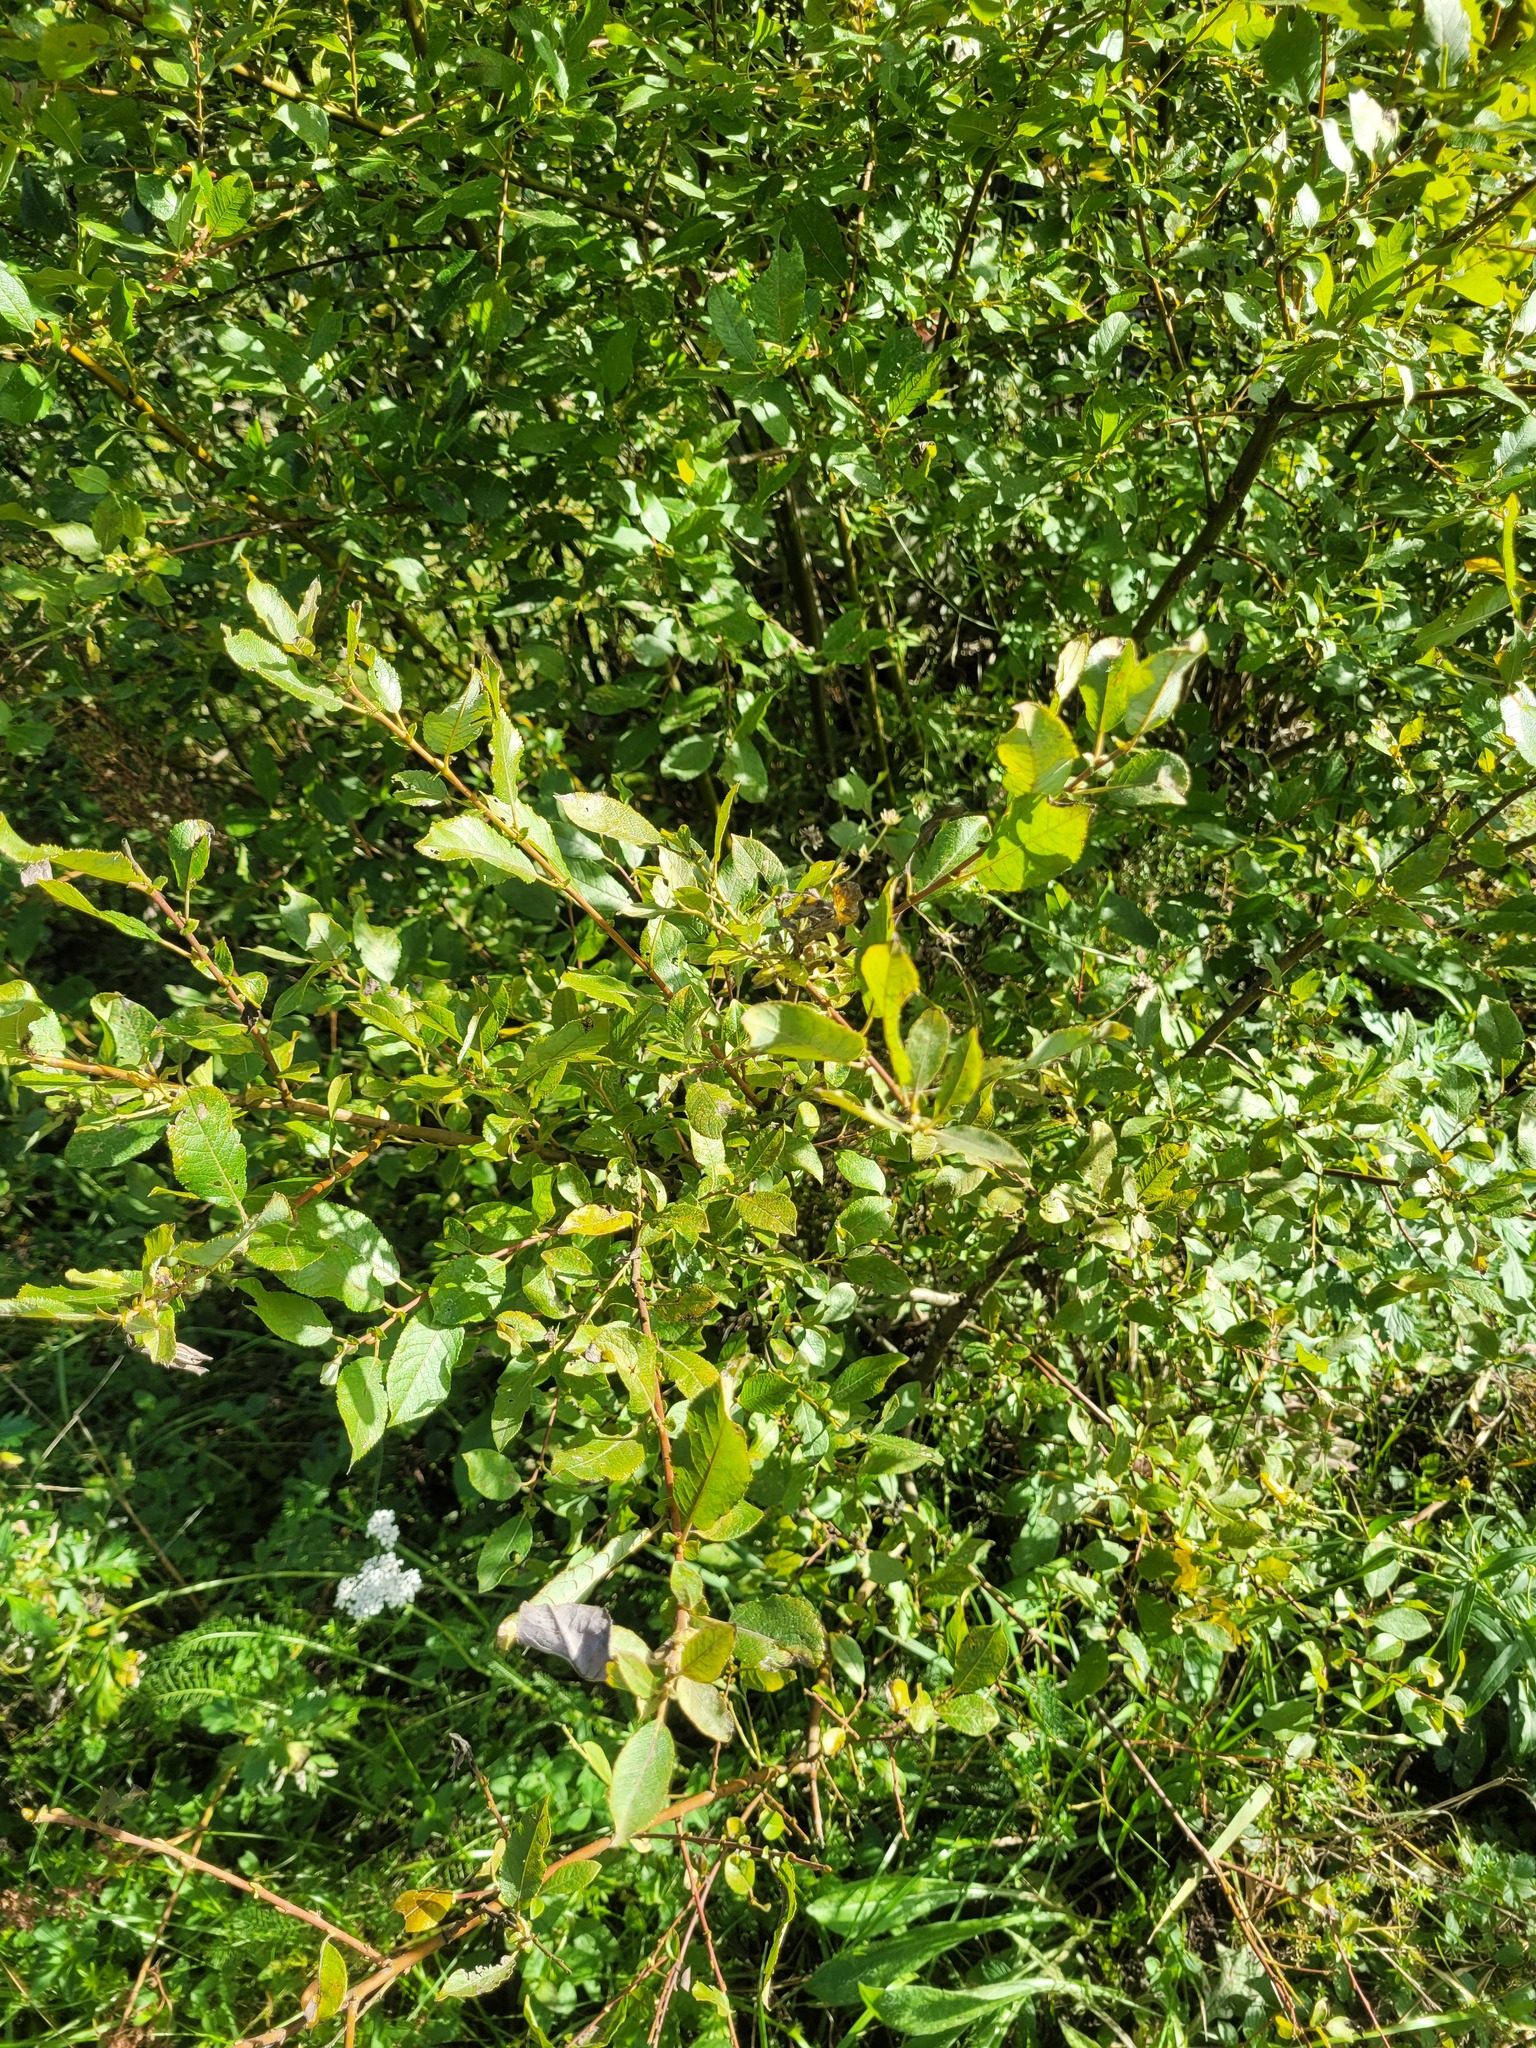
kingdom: Plantae
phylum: Tracheophyta
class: Magnoliopsida
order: Malpighiales
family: Salicaceae
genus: Salix
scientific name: Salix myrsinifolia
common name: Dark-leaved willow
